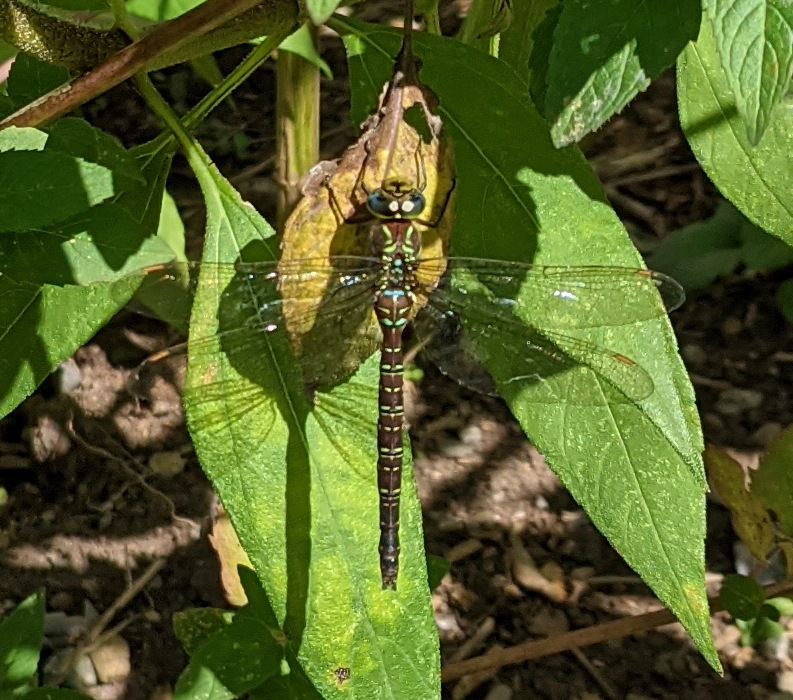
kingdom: Animalia
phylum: Arthropoda
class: Insecta
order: Odonata
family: Aeshnidae
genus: Aeshna
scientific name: Aeshna umbrosa
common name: Shadow darner
